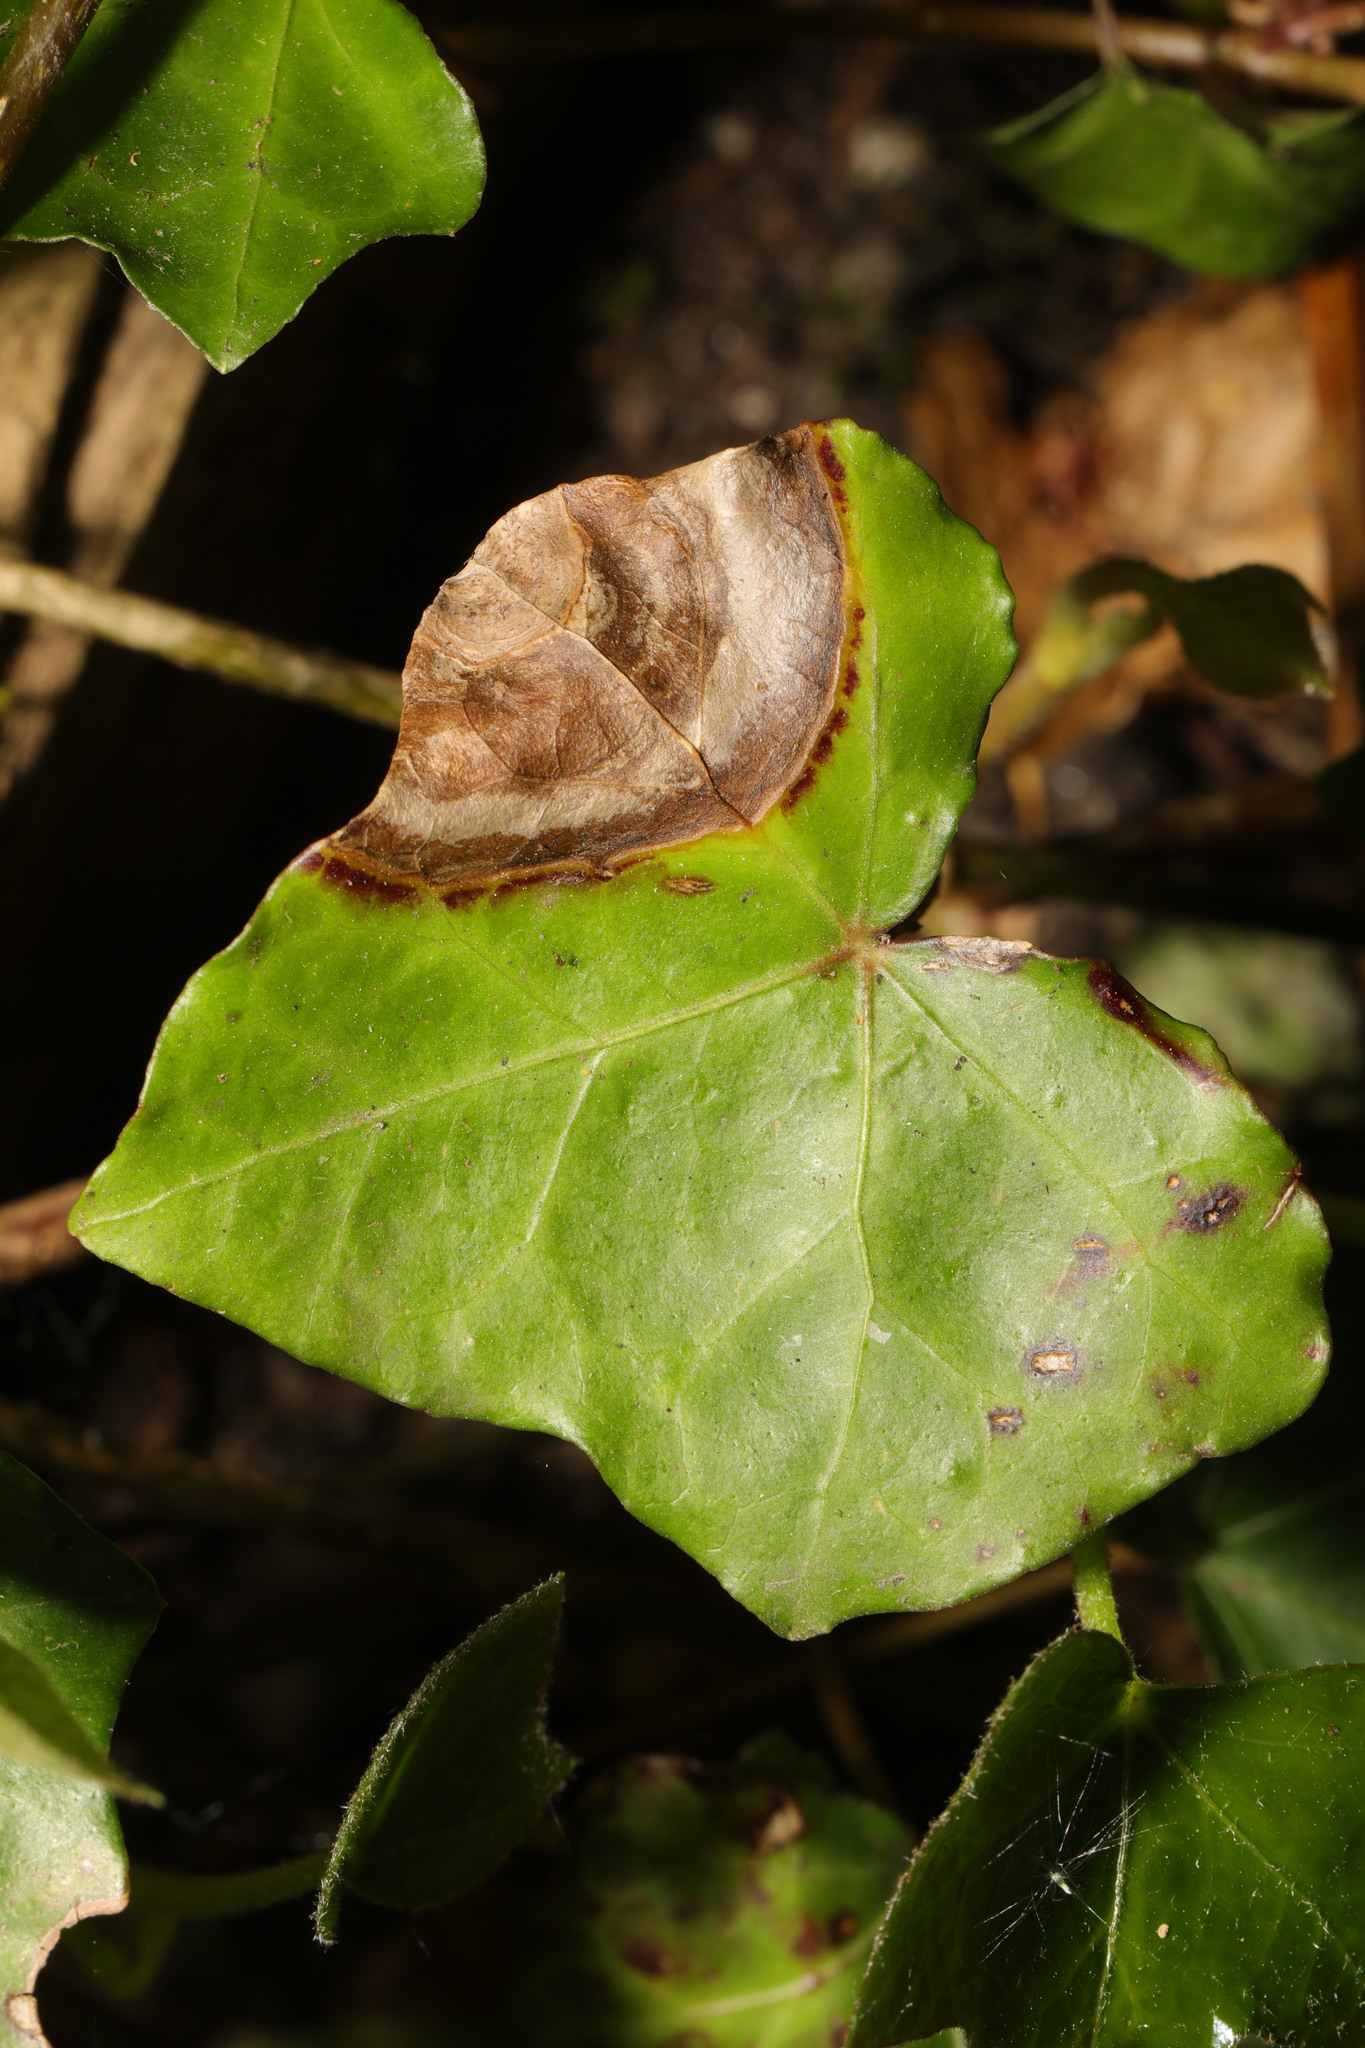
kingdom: Fungi
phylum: Ascomycota
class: Dothideomycetes
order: Pleosporales
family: Didymellaceae
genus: Boeremia
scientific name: Boeremia hedericola
